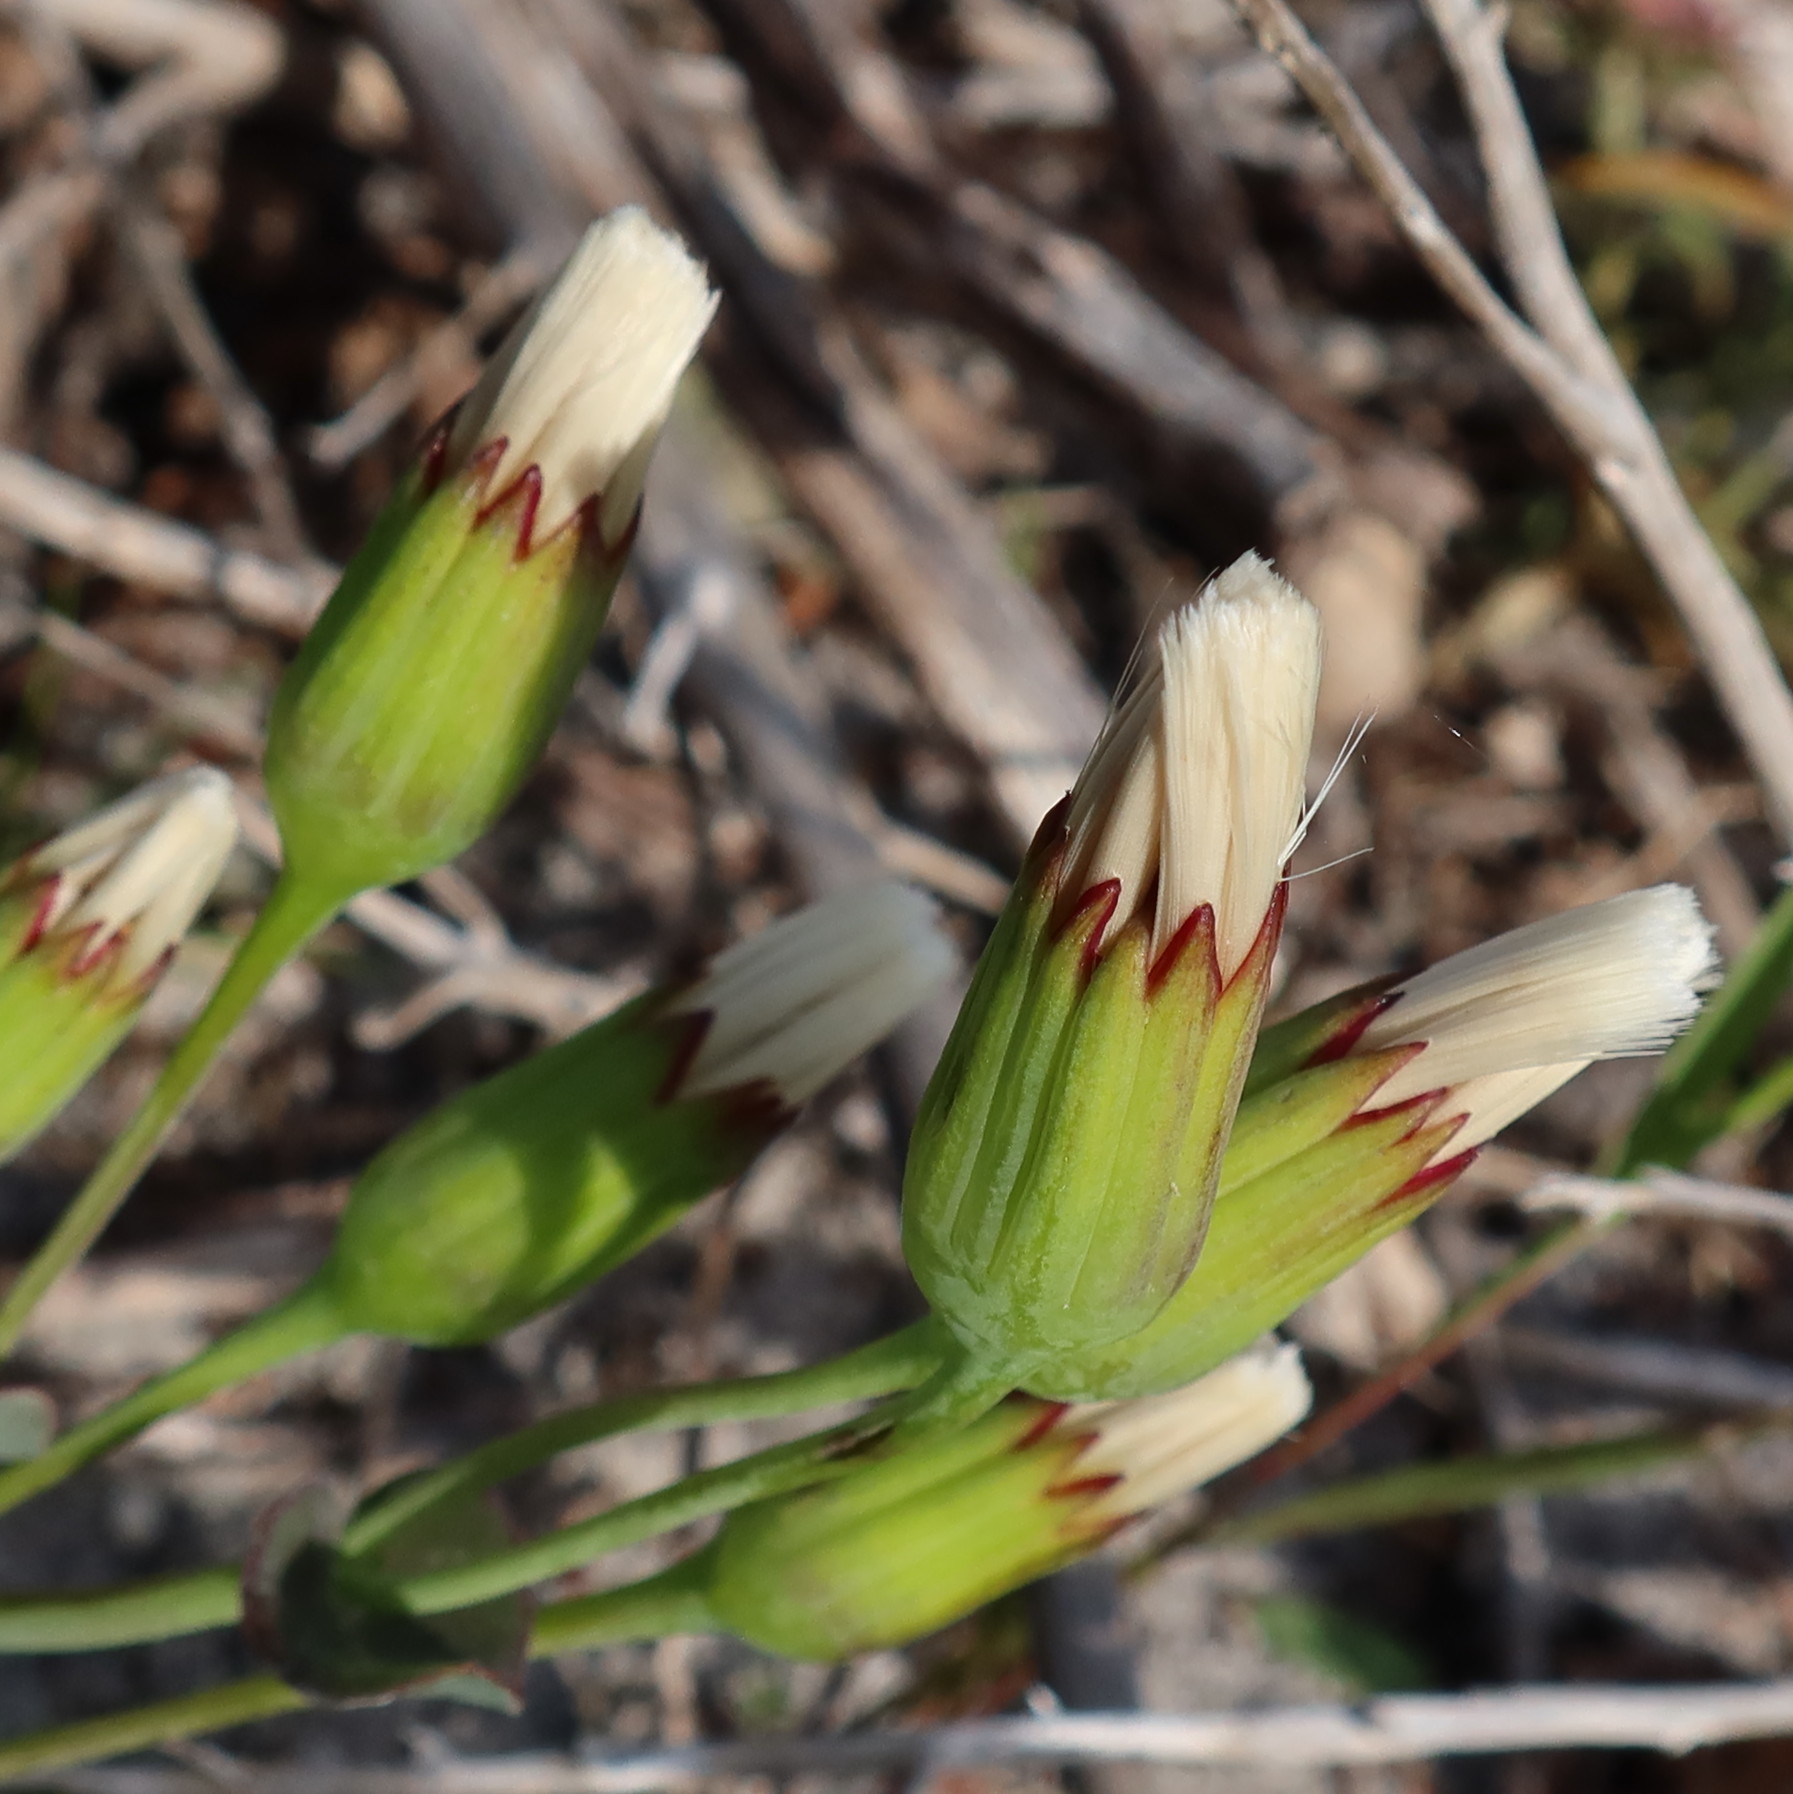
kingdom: Plantae
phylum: Tracheophyta
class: Magnoliopsida
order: Asterales
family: Asteraceae
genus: Othonna
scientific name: Othonna undulosa
